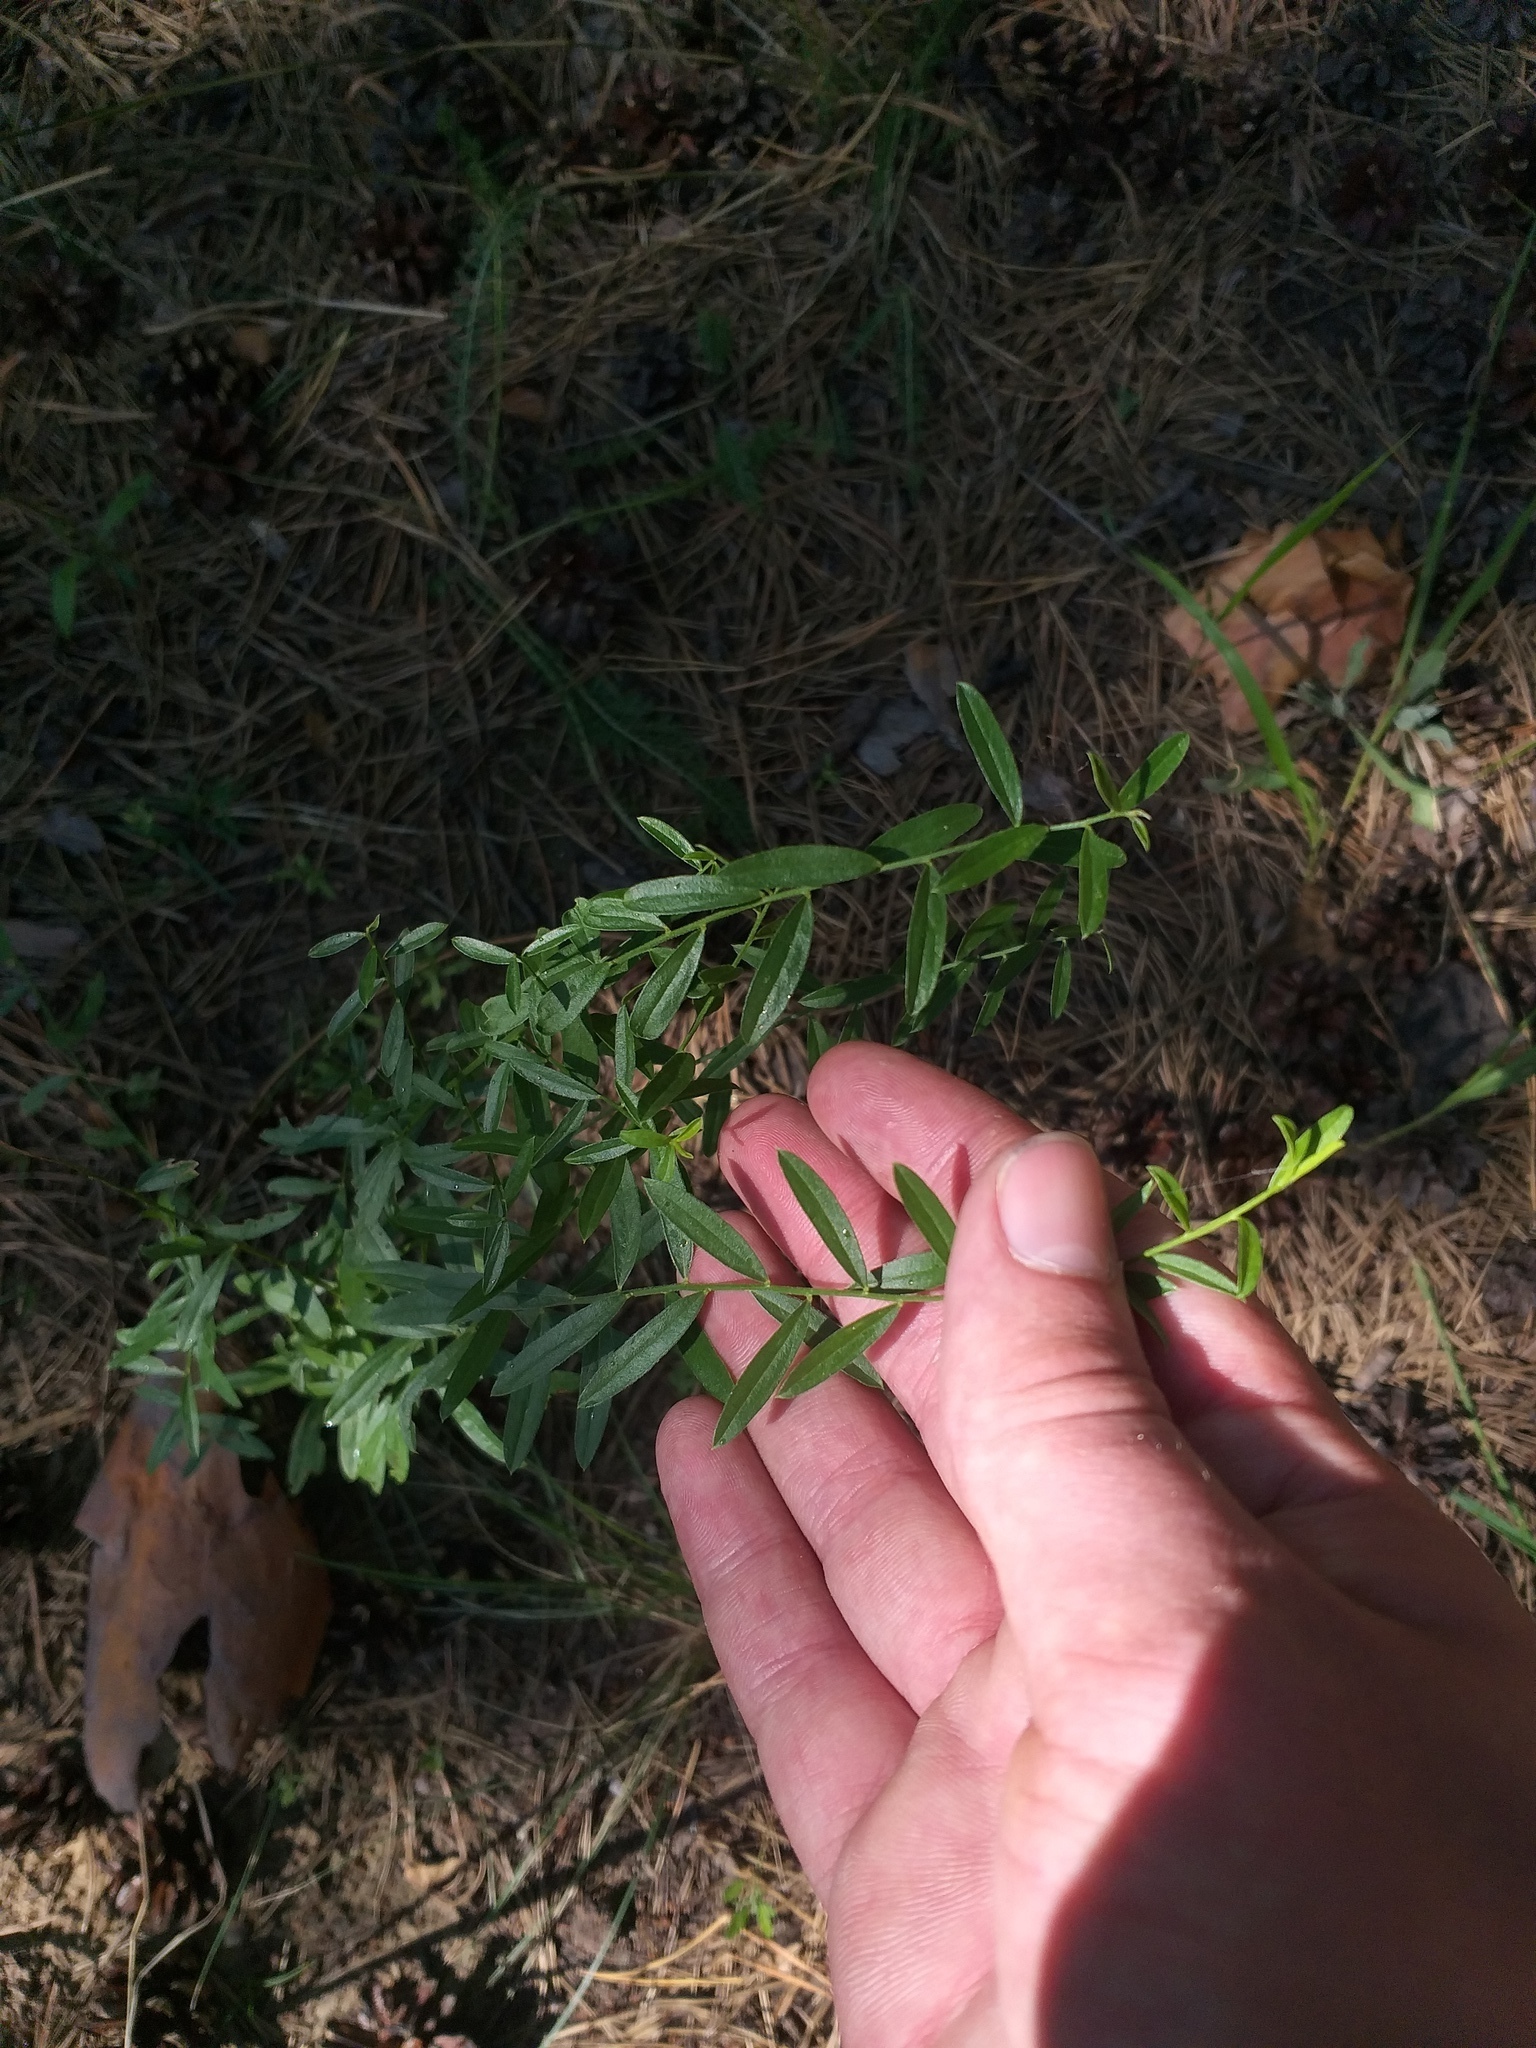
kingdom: Plantae
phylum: Tracheophyta
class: Magnoliopsida
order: Fabales
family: Fabaceae
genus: Genista
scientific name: Genista tinctoria
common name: Dyer's greenweed
